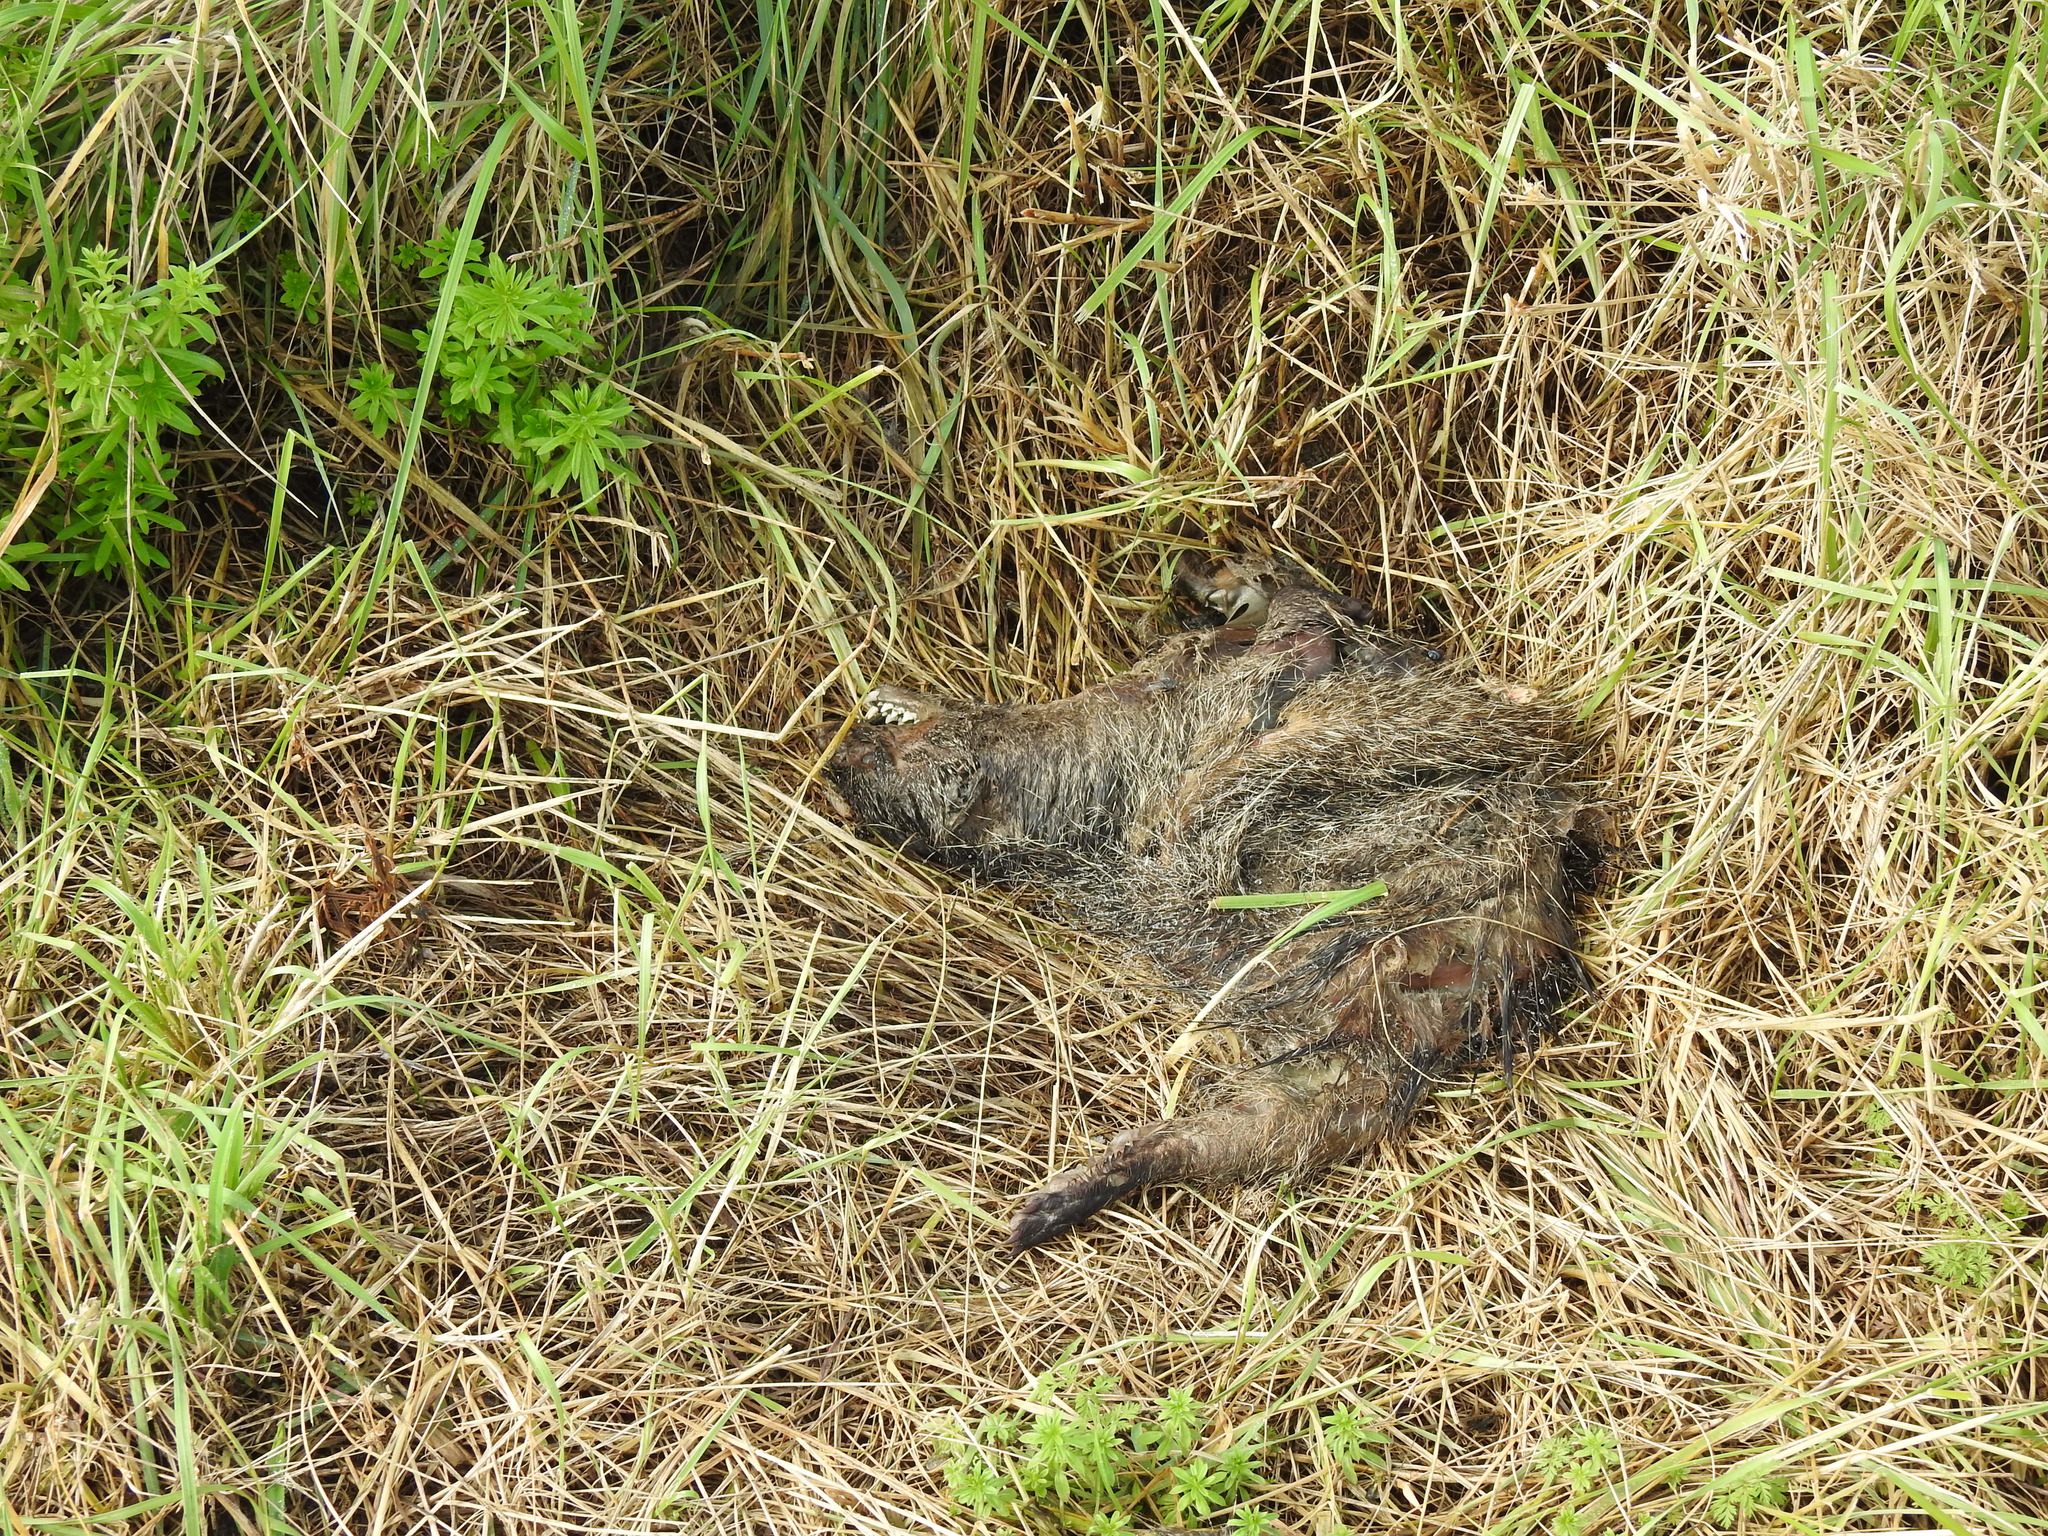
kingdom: Animalia
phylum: Chordata
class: Mammalia
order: Carnivora
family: Herpestidae
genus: Herpestes
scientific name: Herpestes ichneumon
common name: Egyptian mongoose
